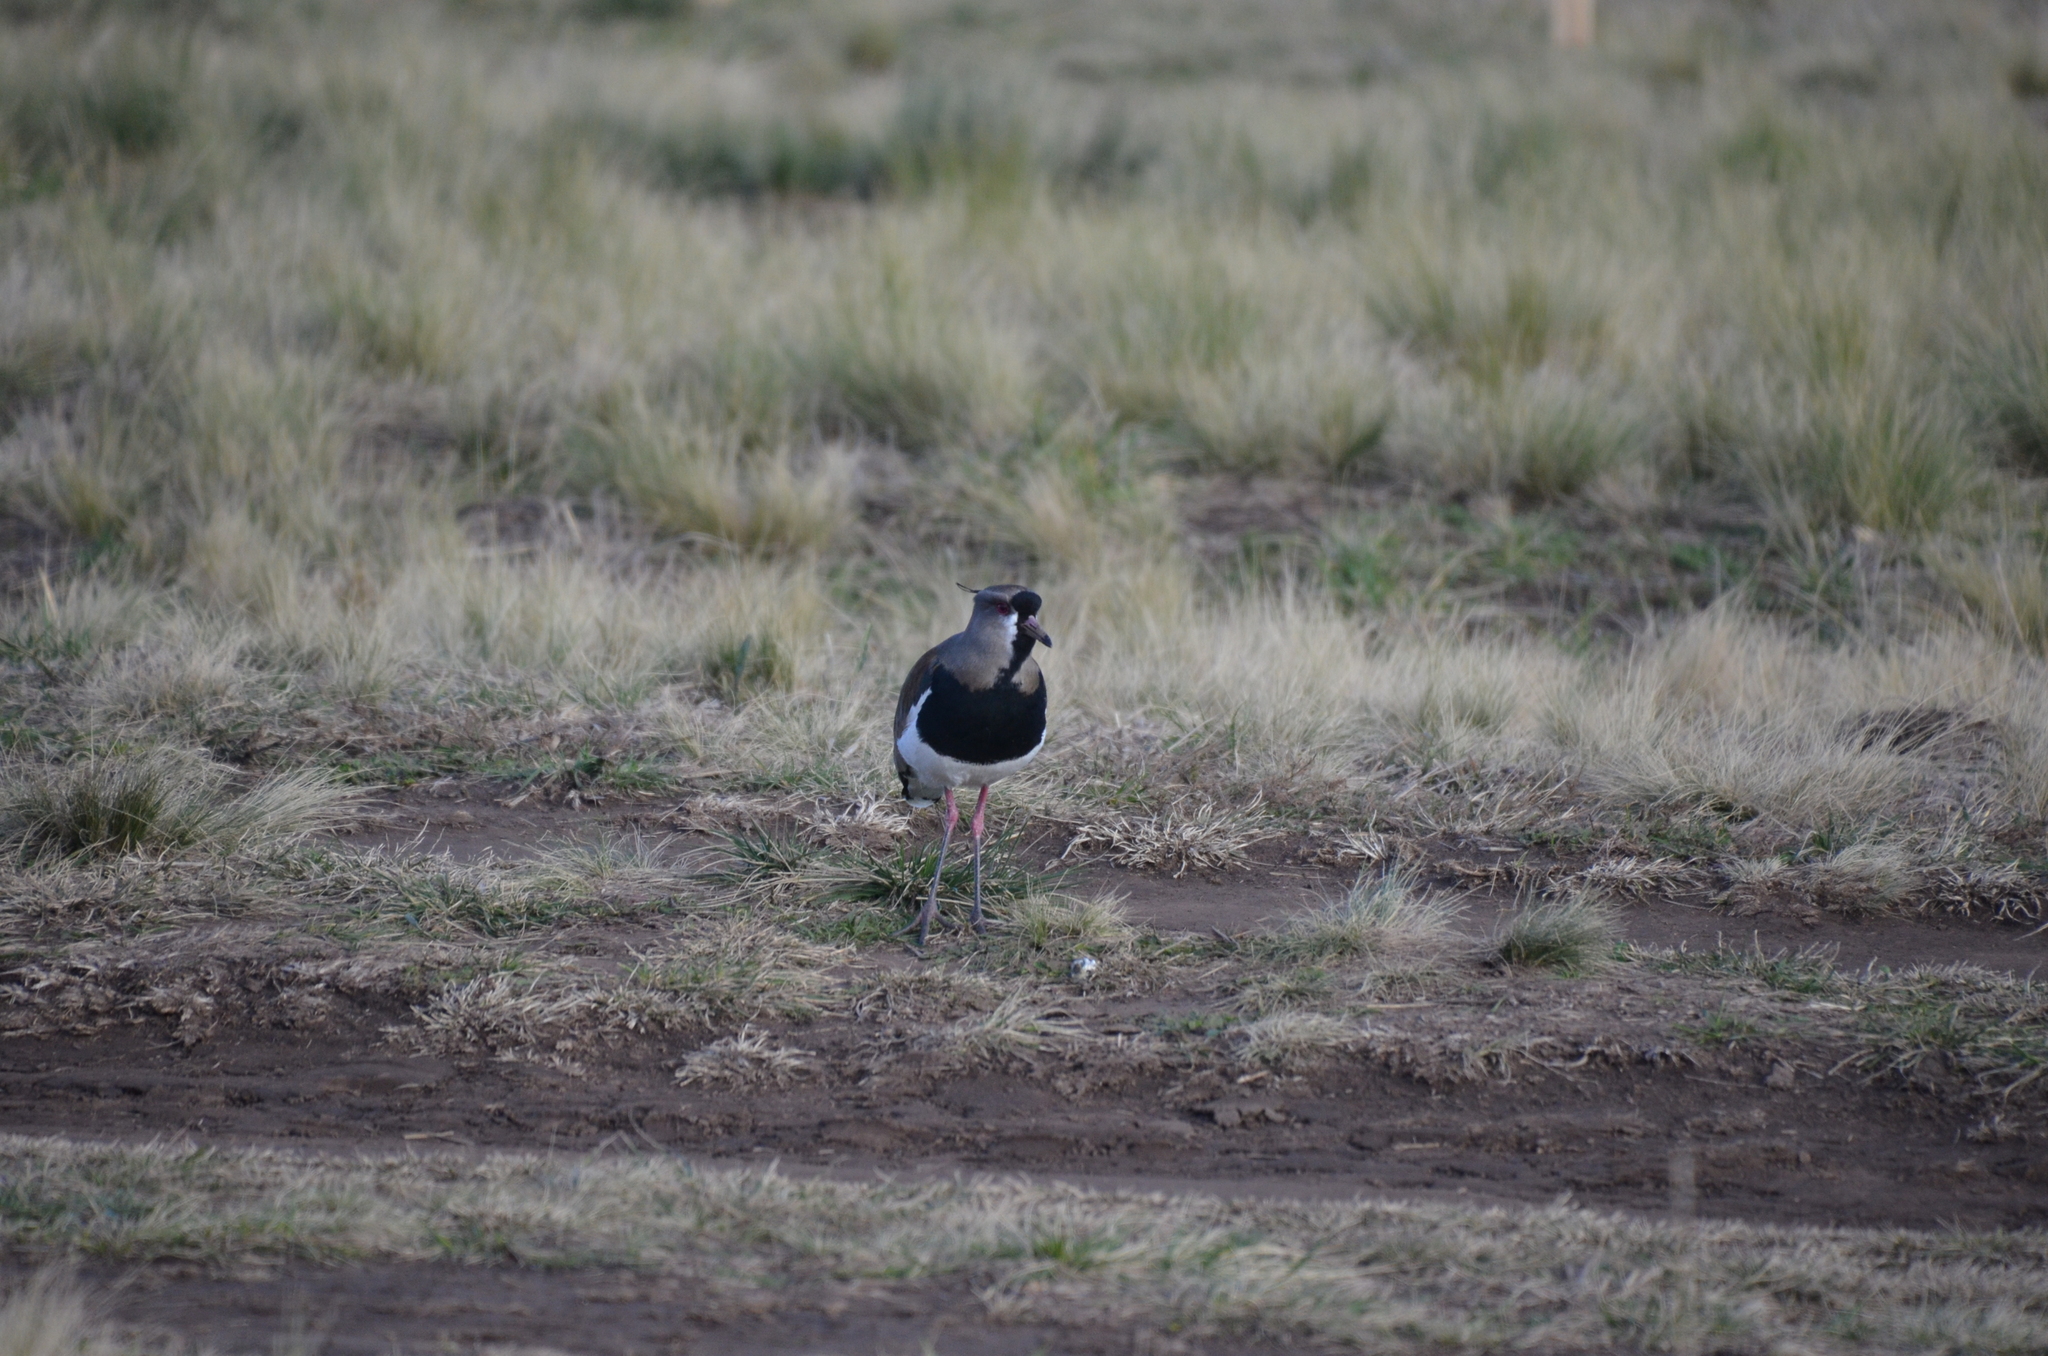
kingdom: Animalia
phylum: Chordata
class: Aves
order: Charadriiformes
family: Charadriidae
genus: Vanellus
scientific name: Vanellus chilensis
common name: Southern lapwing
